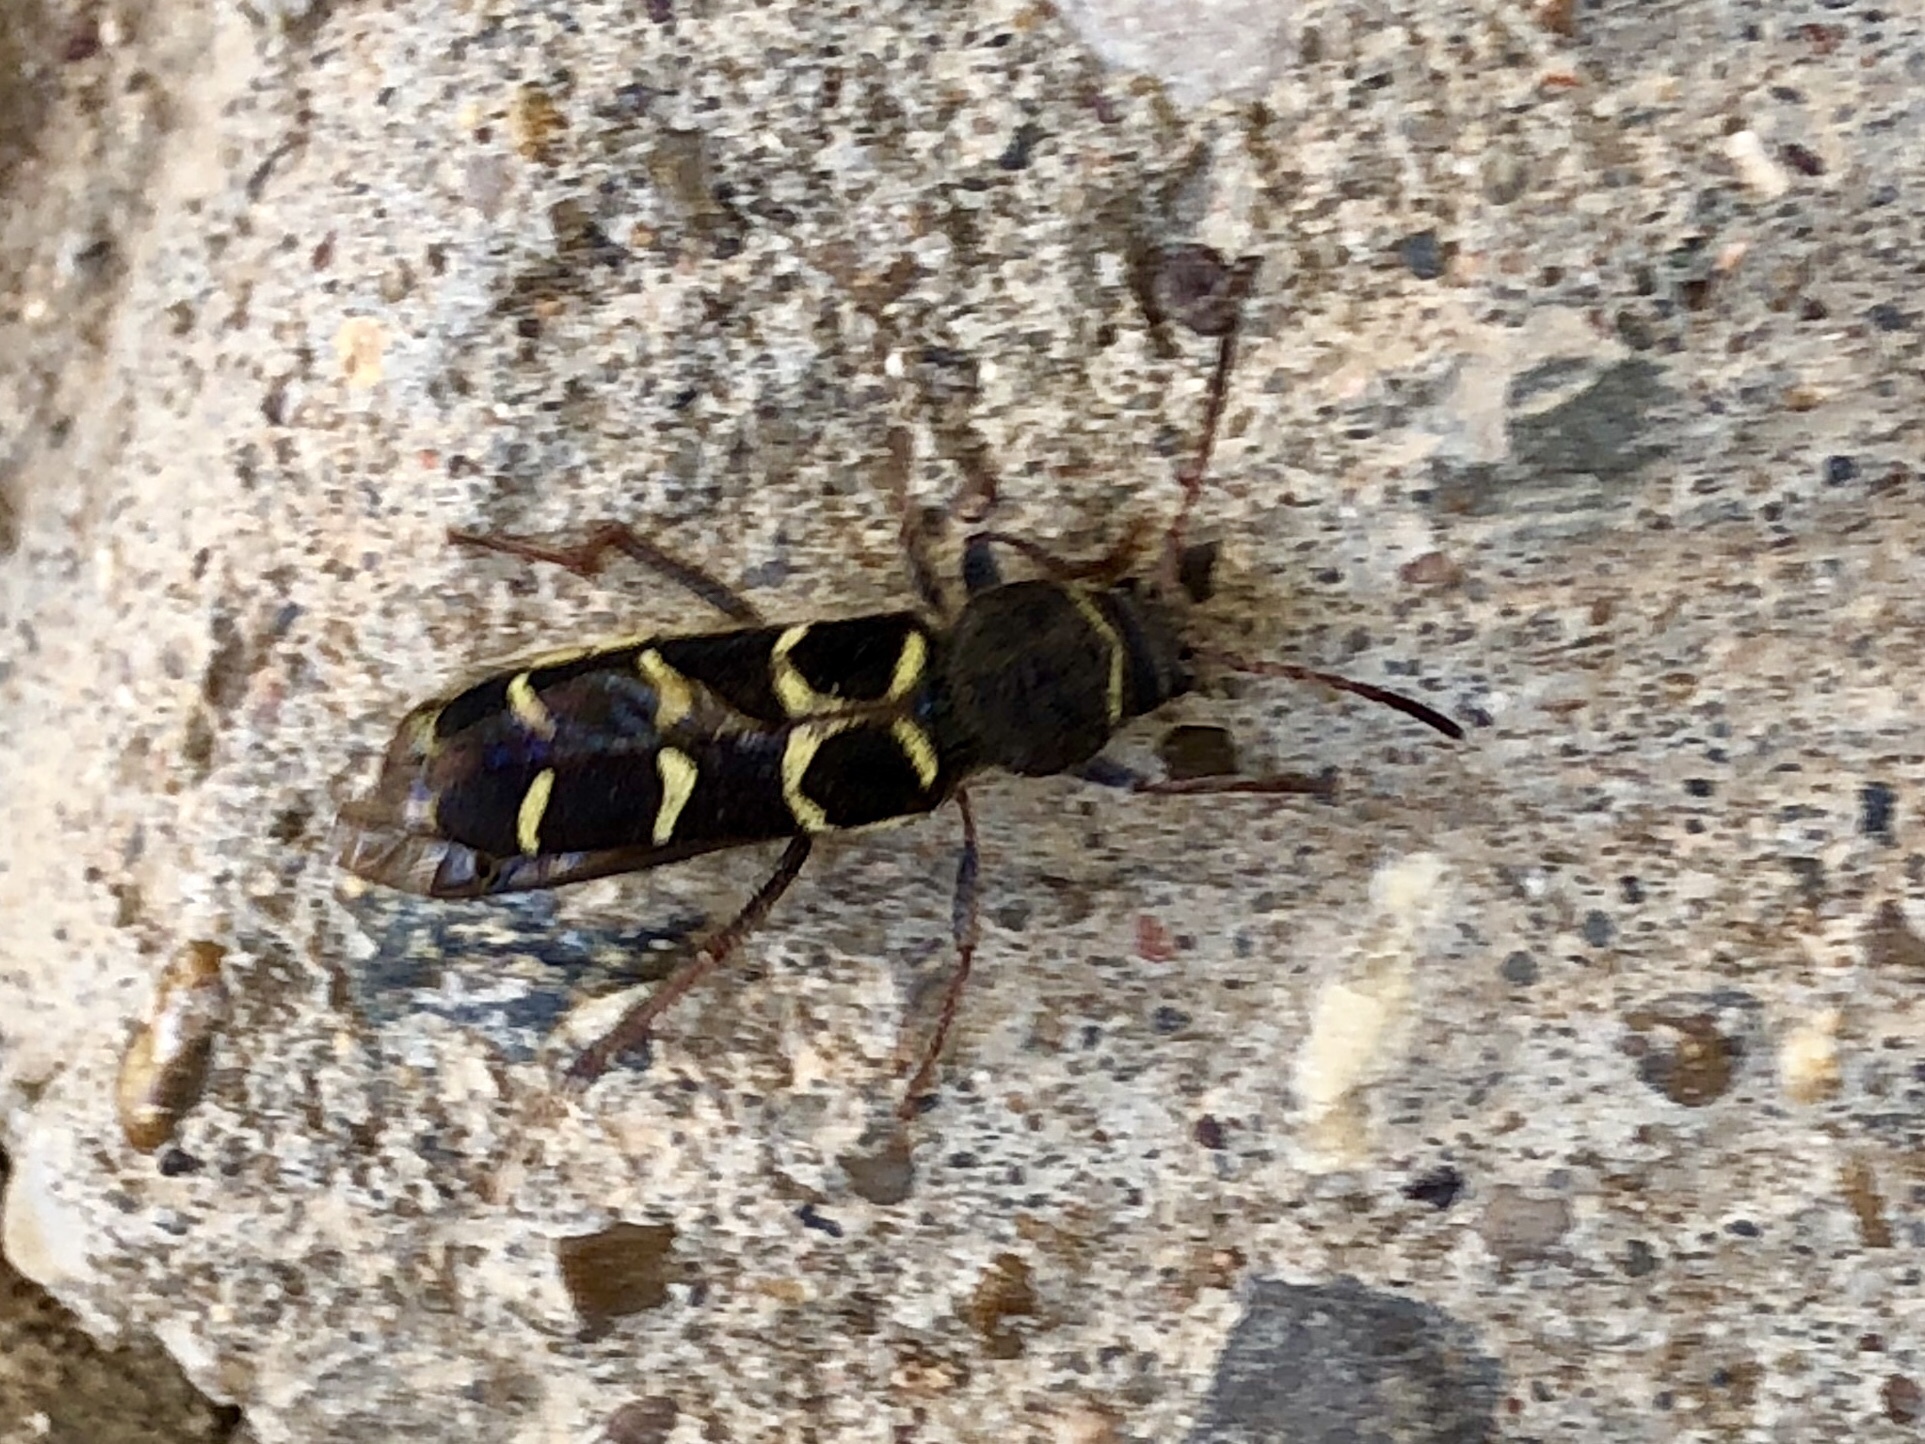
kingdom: Animalia
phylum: Arthropoda
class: Insecta
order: Coleoptera
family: Cerambycidae
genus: Neoclytus
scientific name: Neoclytus caprea
